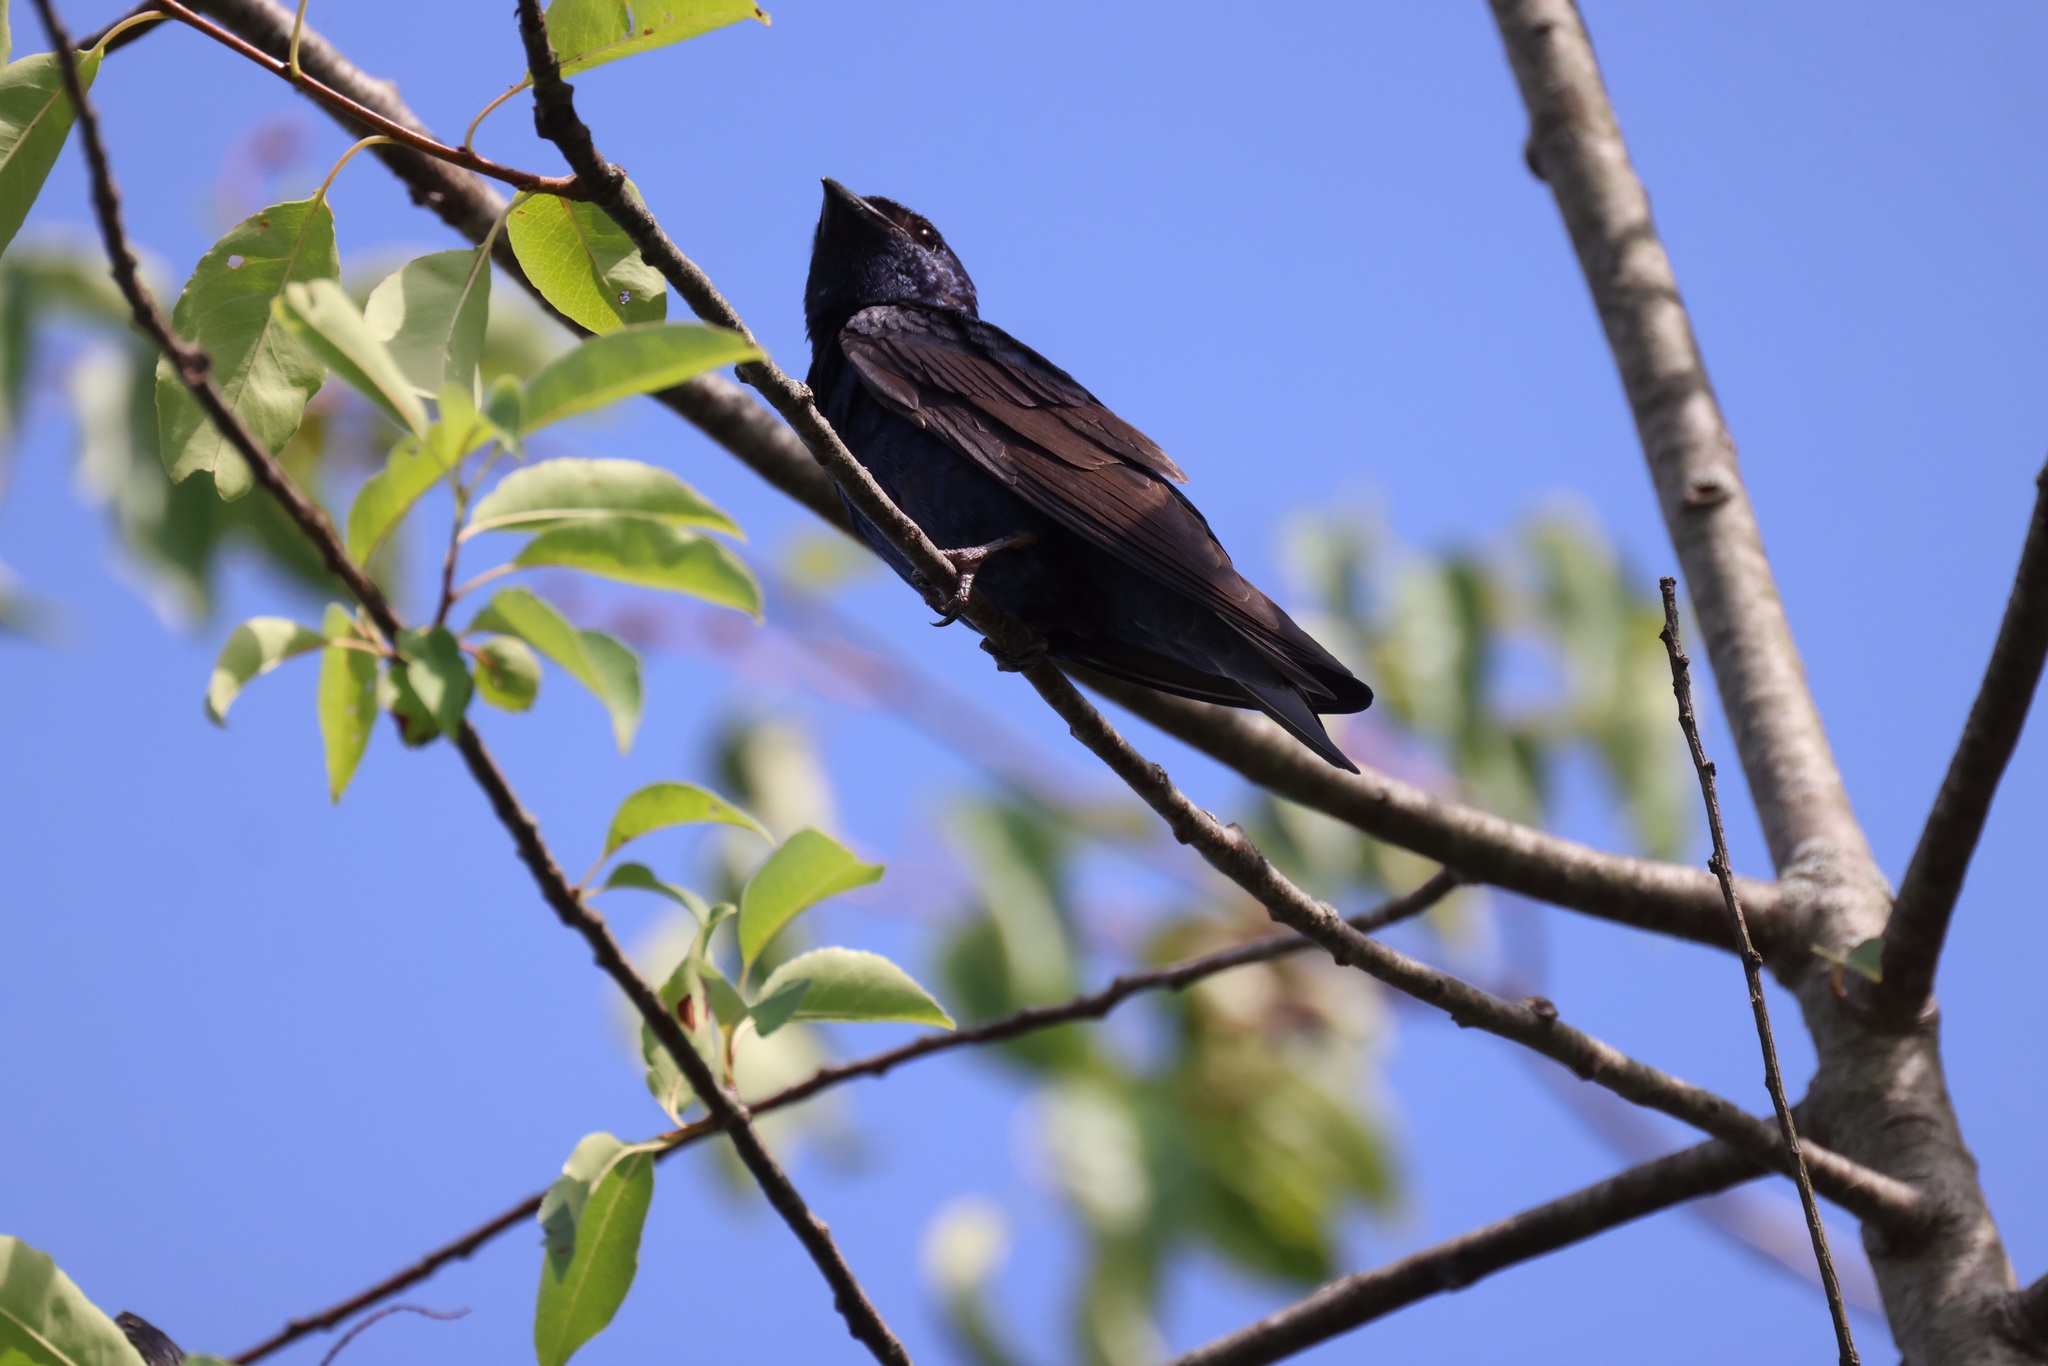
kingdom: Animalia
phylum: Chordata
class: Aves
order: Passeriformes
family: Hirundinidae
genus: Progne
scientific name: Progne subis
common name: Purple martin
